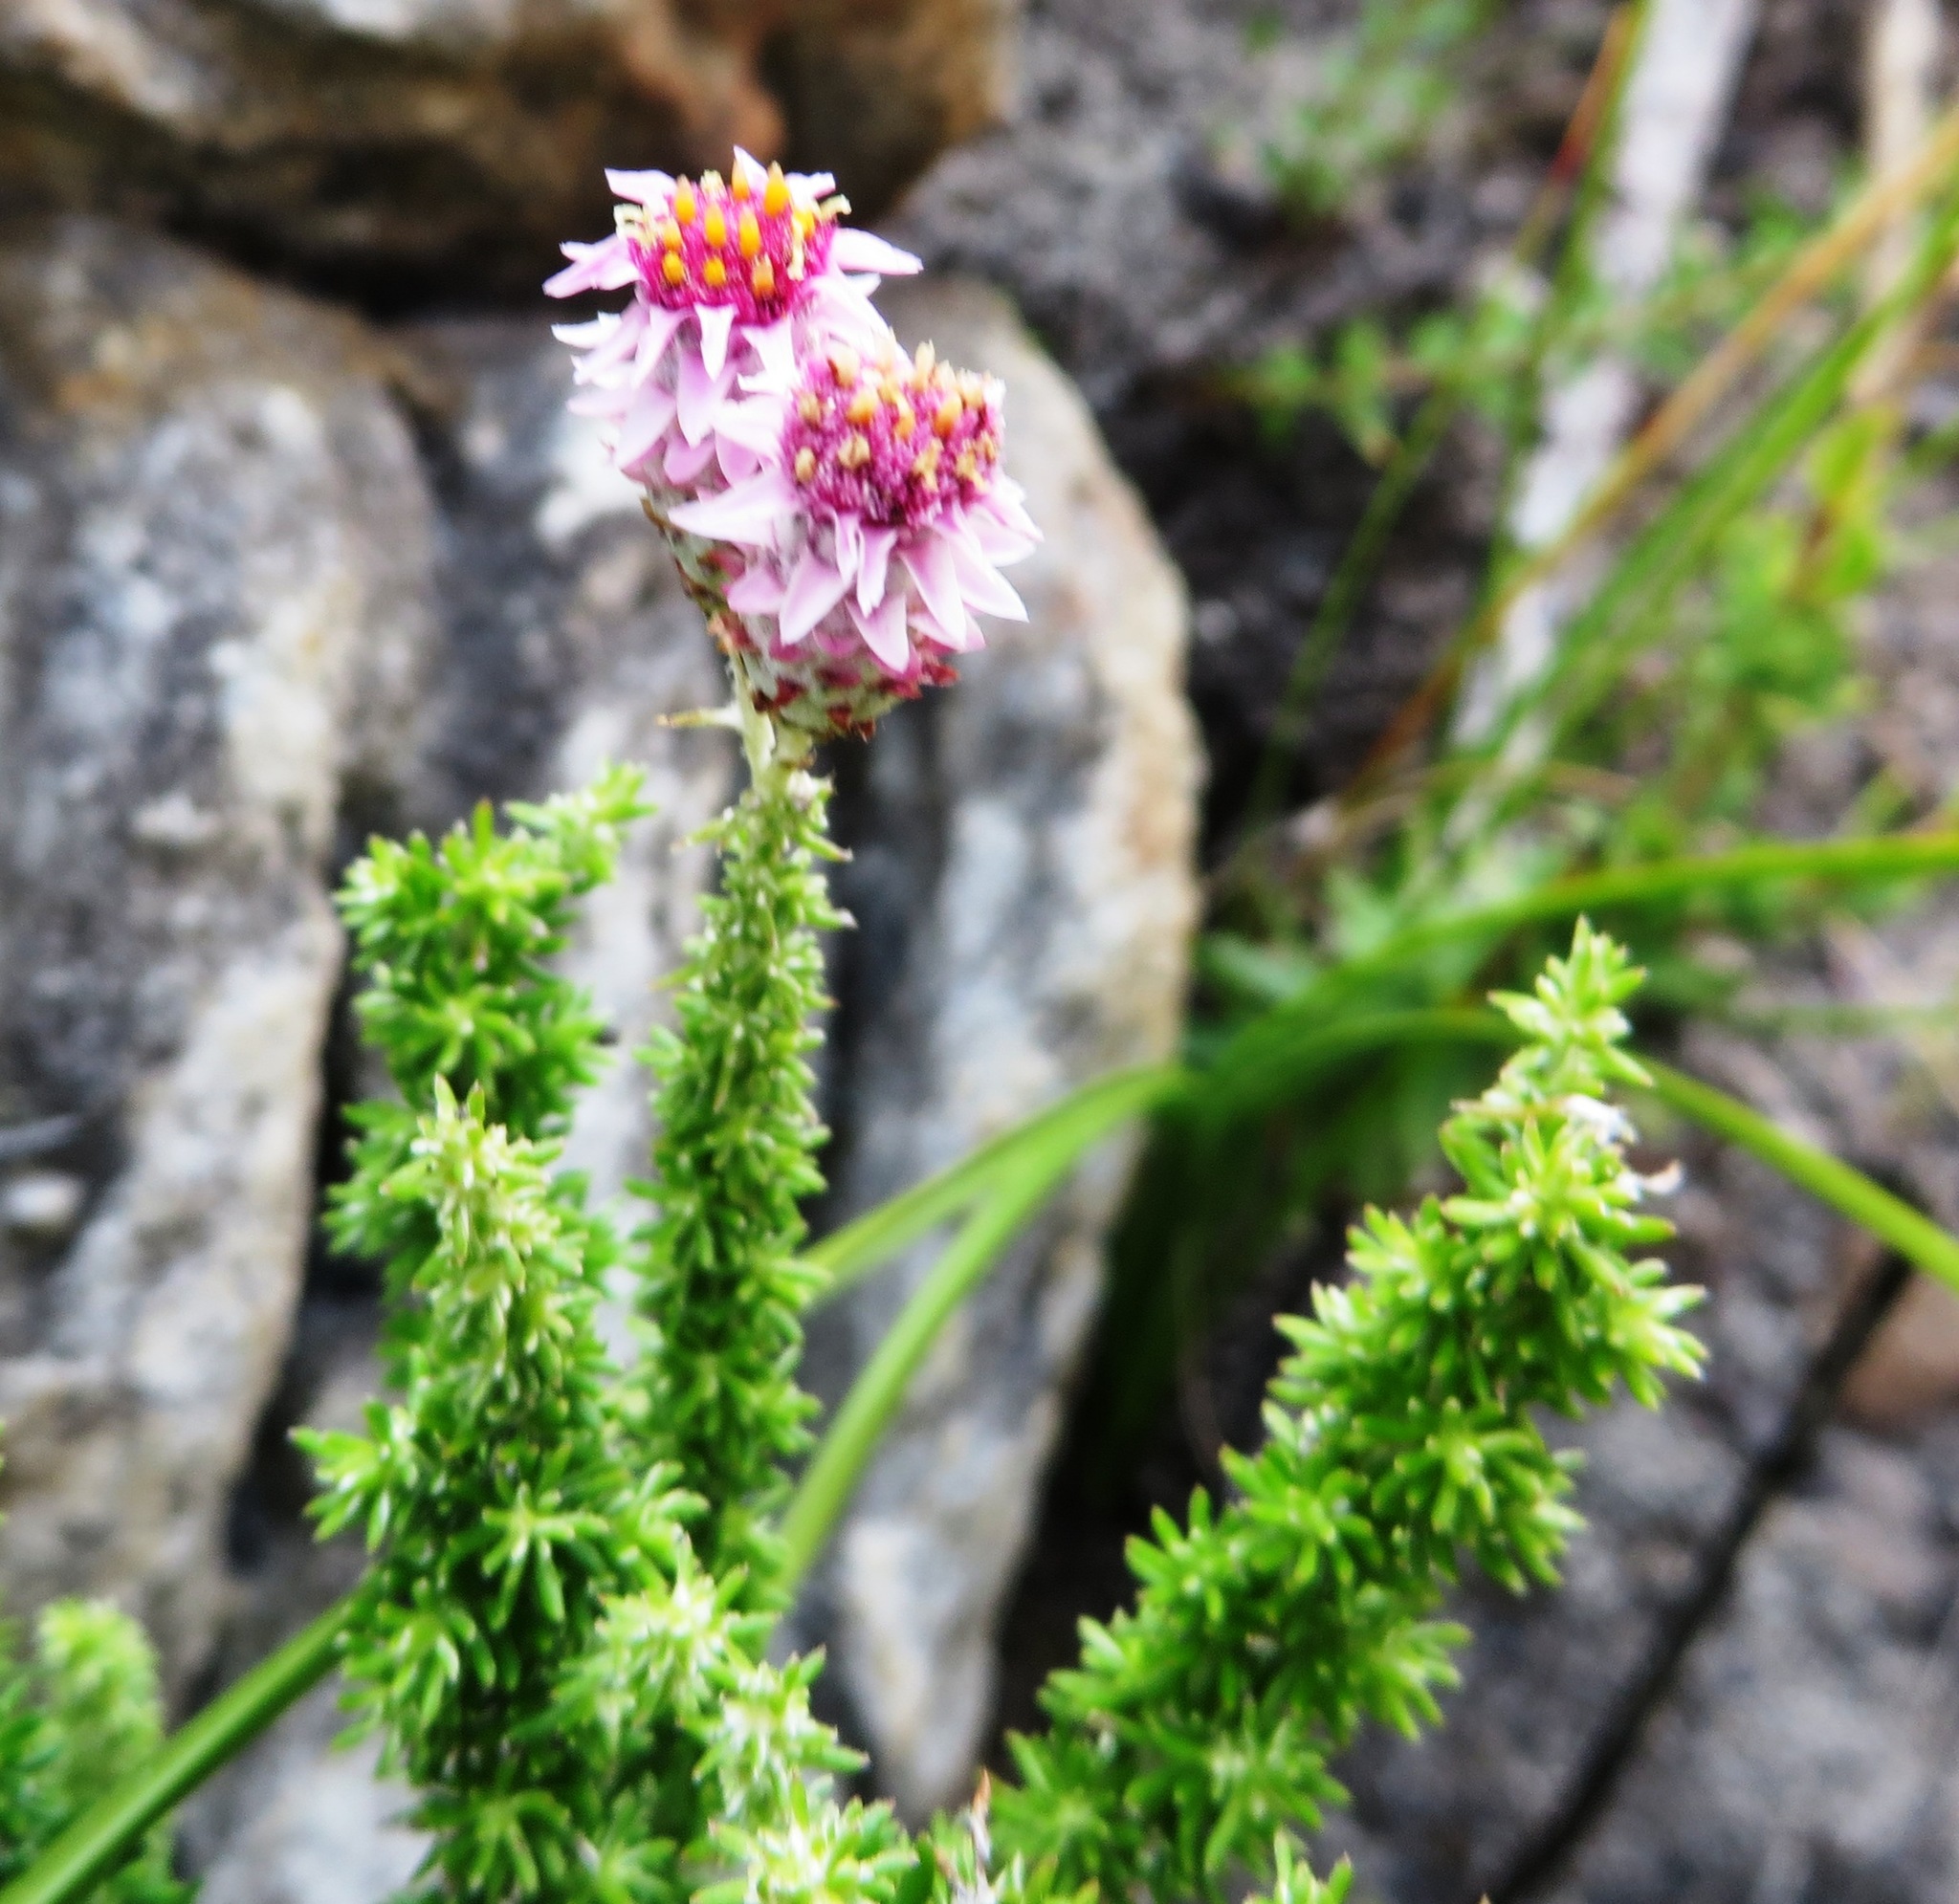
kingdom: Plantae
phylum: Tracheophyta
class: Magnoliopsida
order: Asterales
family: Asteraceae
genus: Lachnospermum
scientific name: Lachnospermum umbellatum
